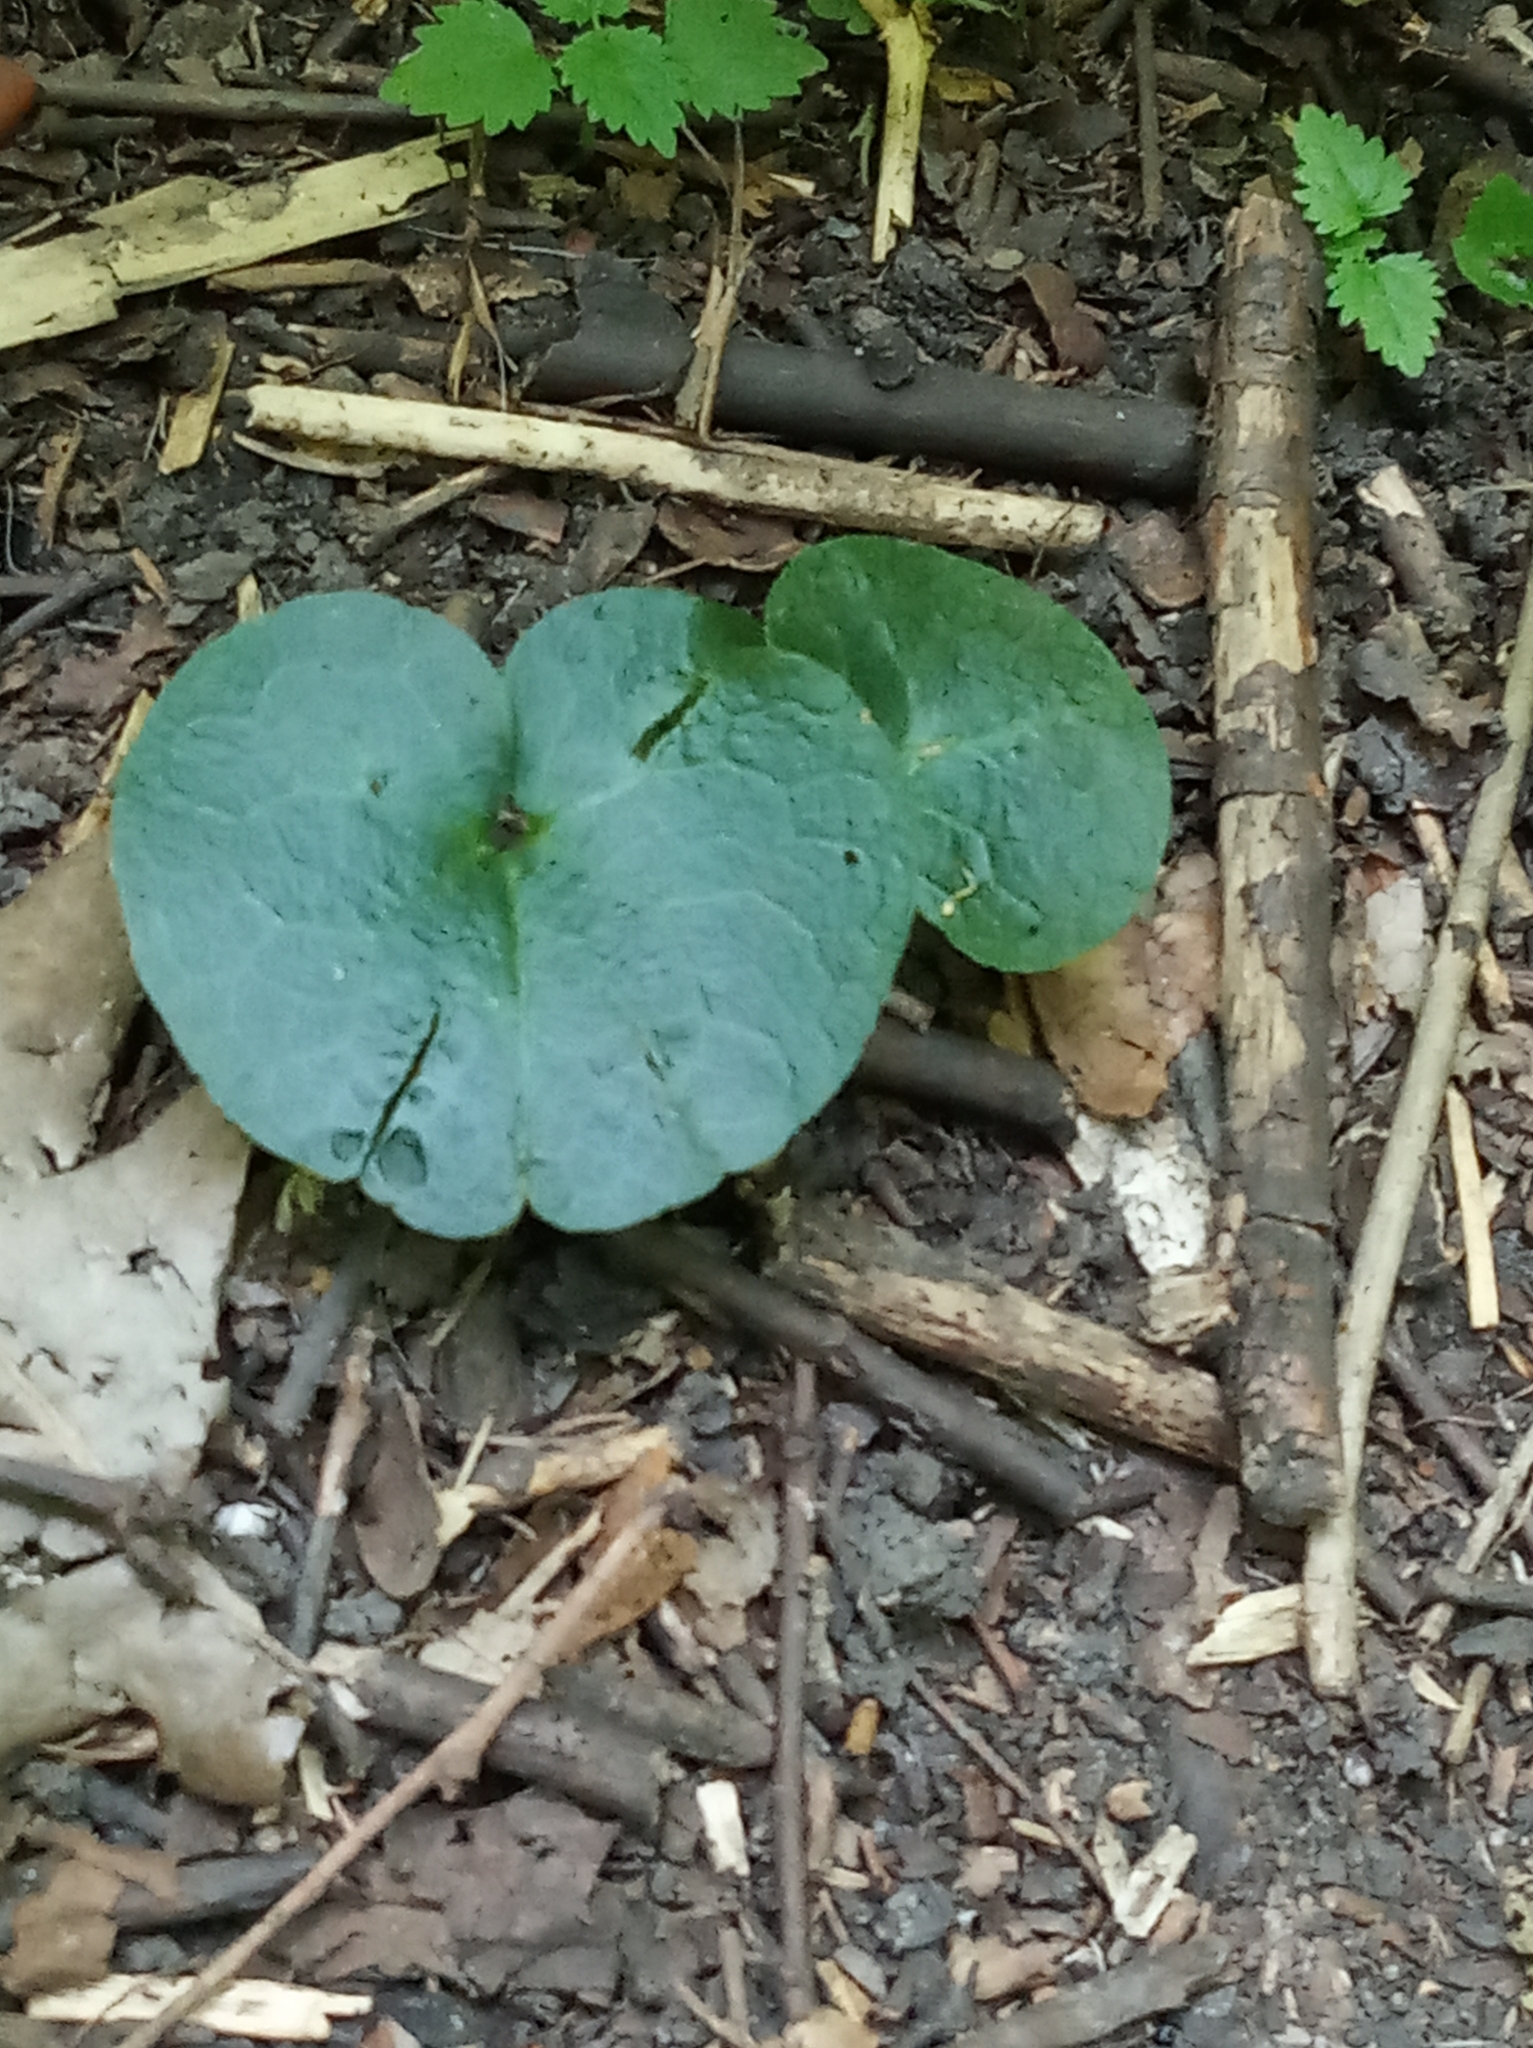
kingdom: Plantae
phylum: Tracheophyta
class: Magnoliopsida
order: Piperales
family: Aristolochiaceae
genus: Asarum
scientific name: Asarum europaeum
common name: Asarabacca
